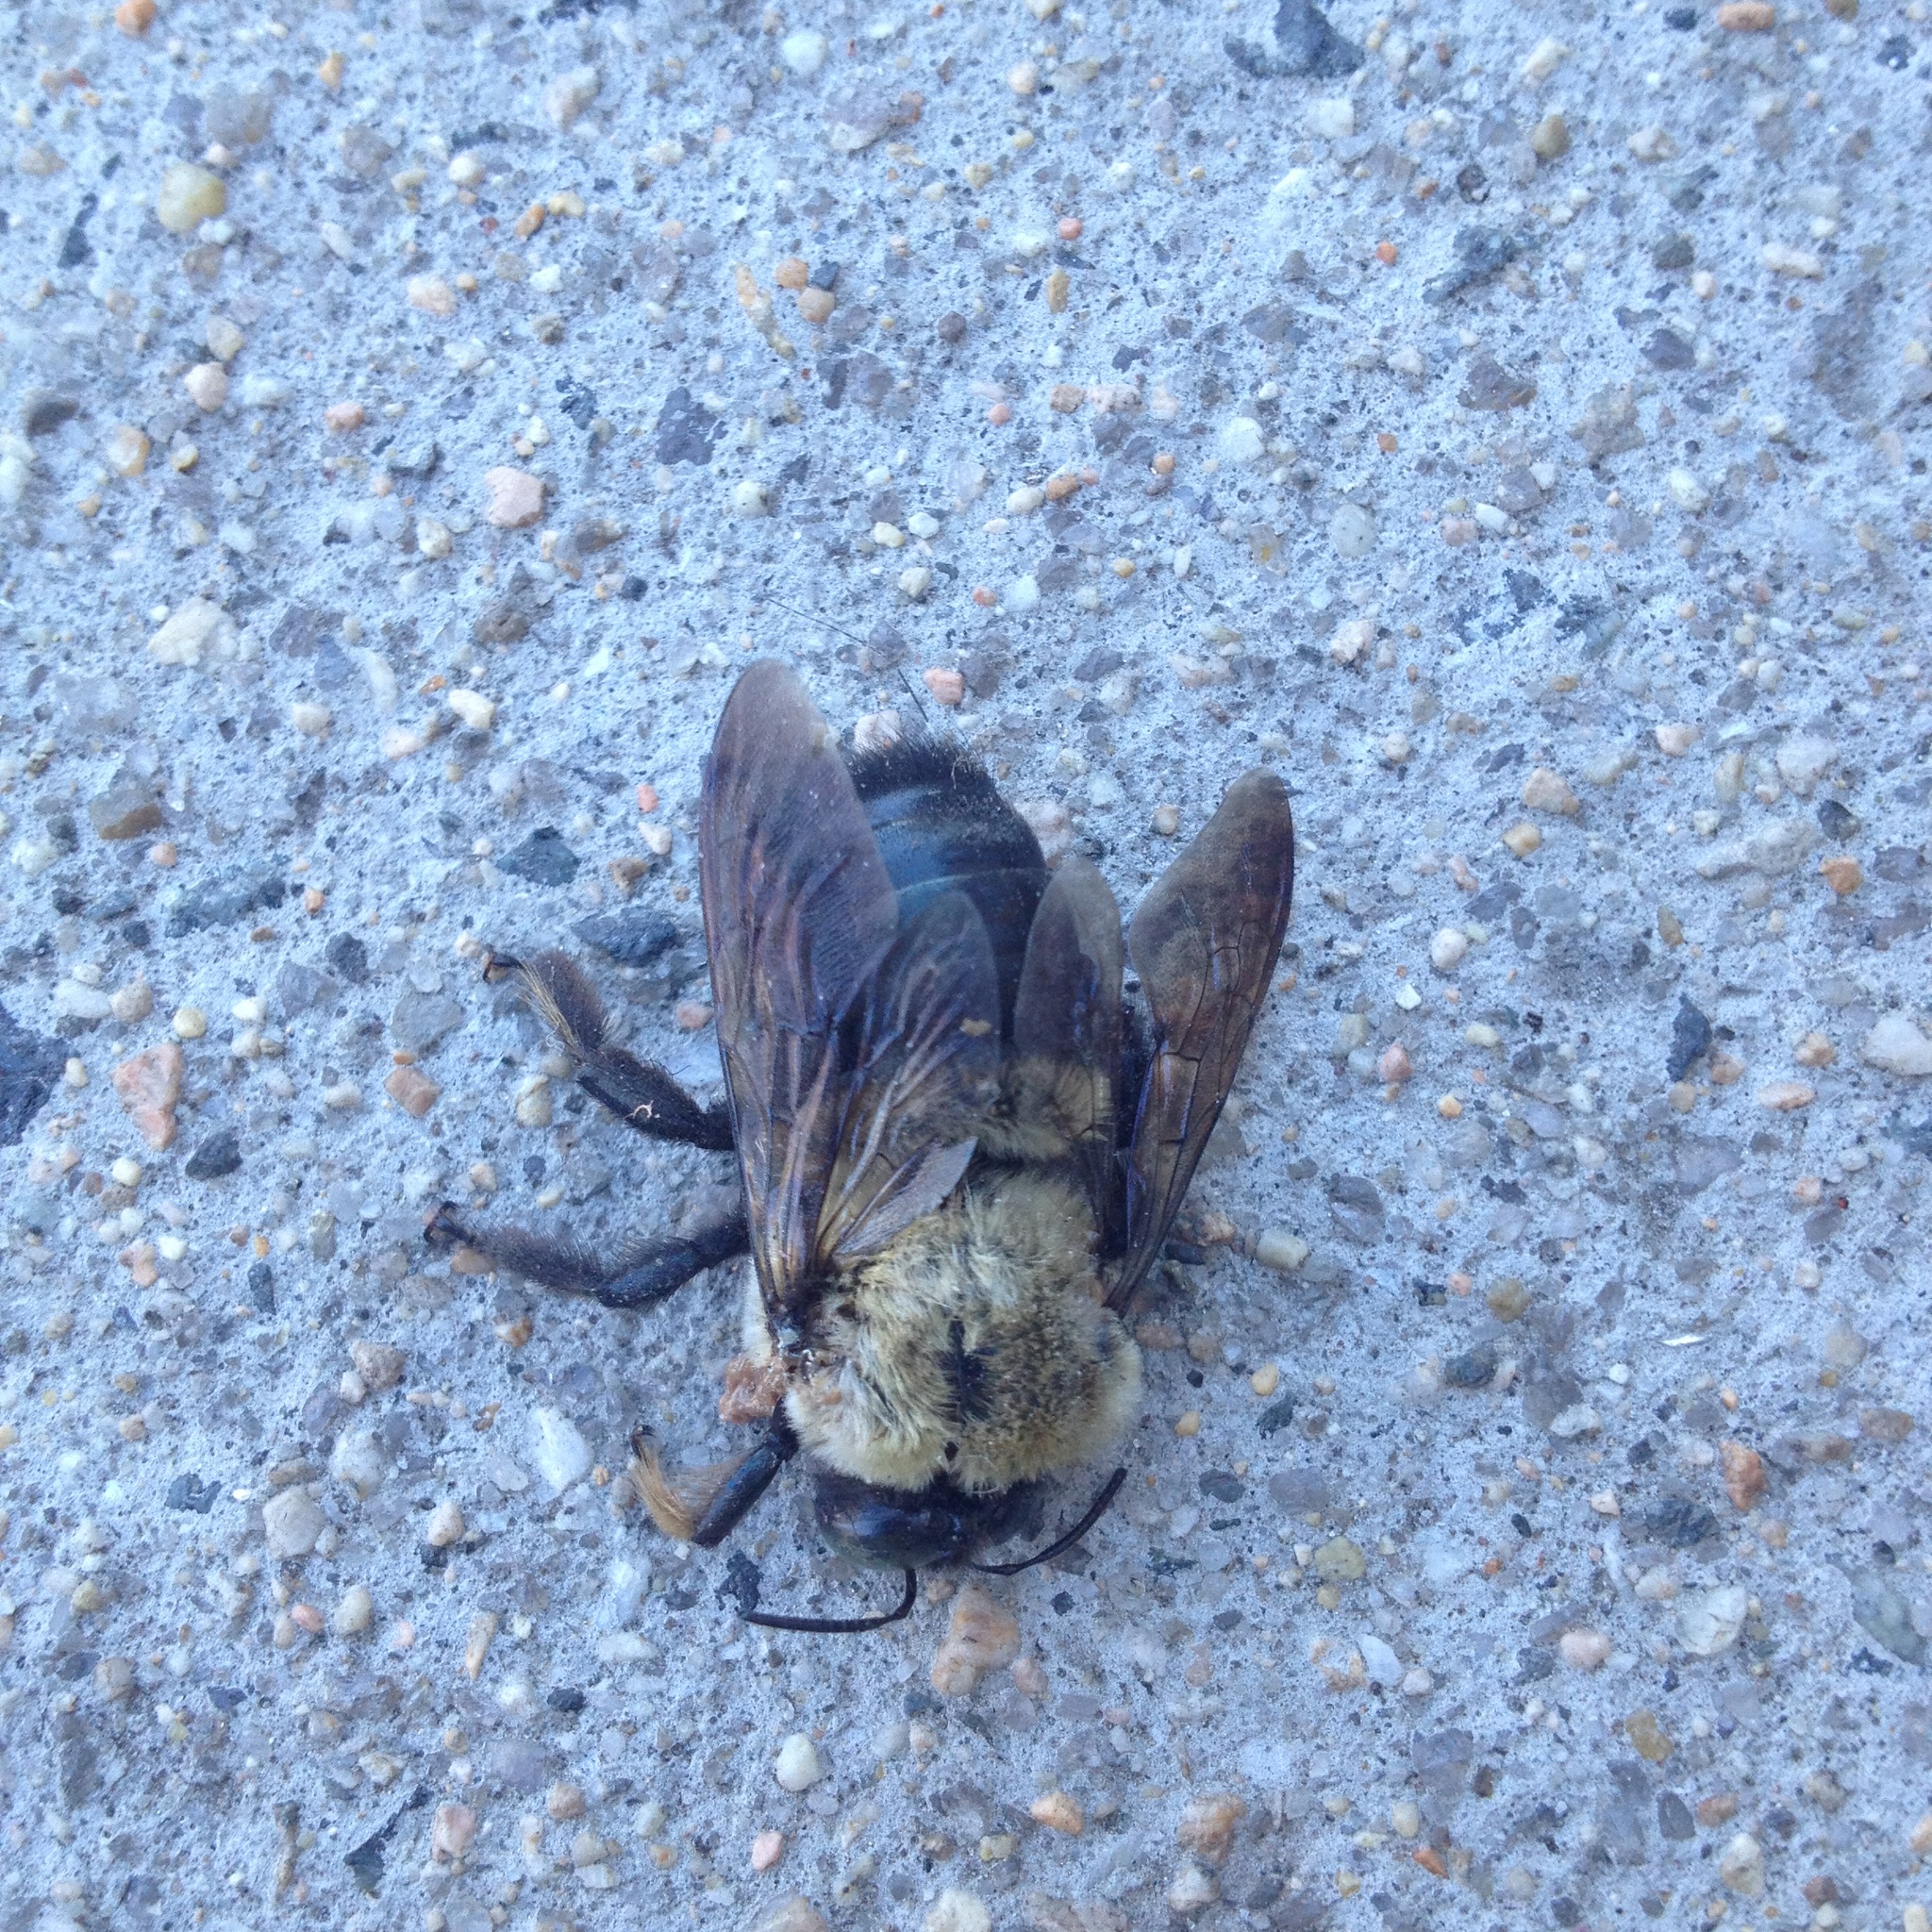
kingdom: Animalia
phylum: Arthropoda
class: Insecta
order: Hymenoptera
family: Apidae
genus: Xylocopa
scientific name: Xylocopa virginica
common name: Carpenter bee
